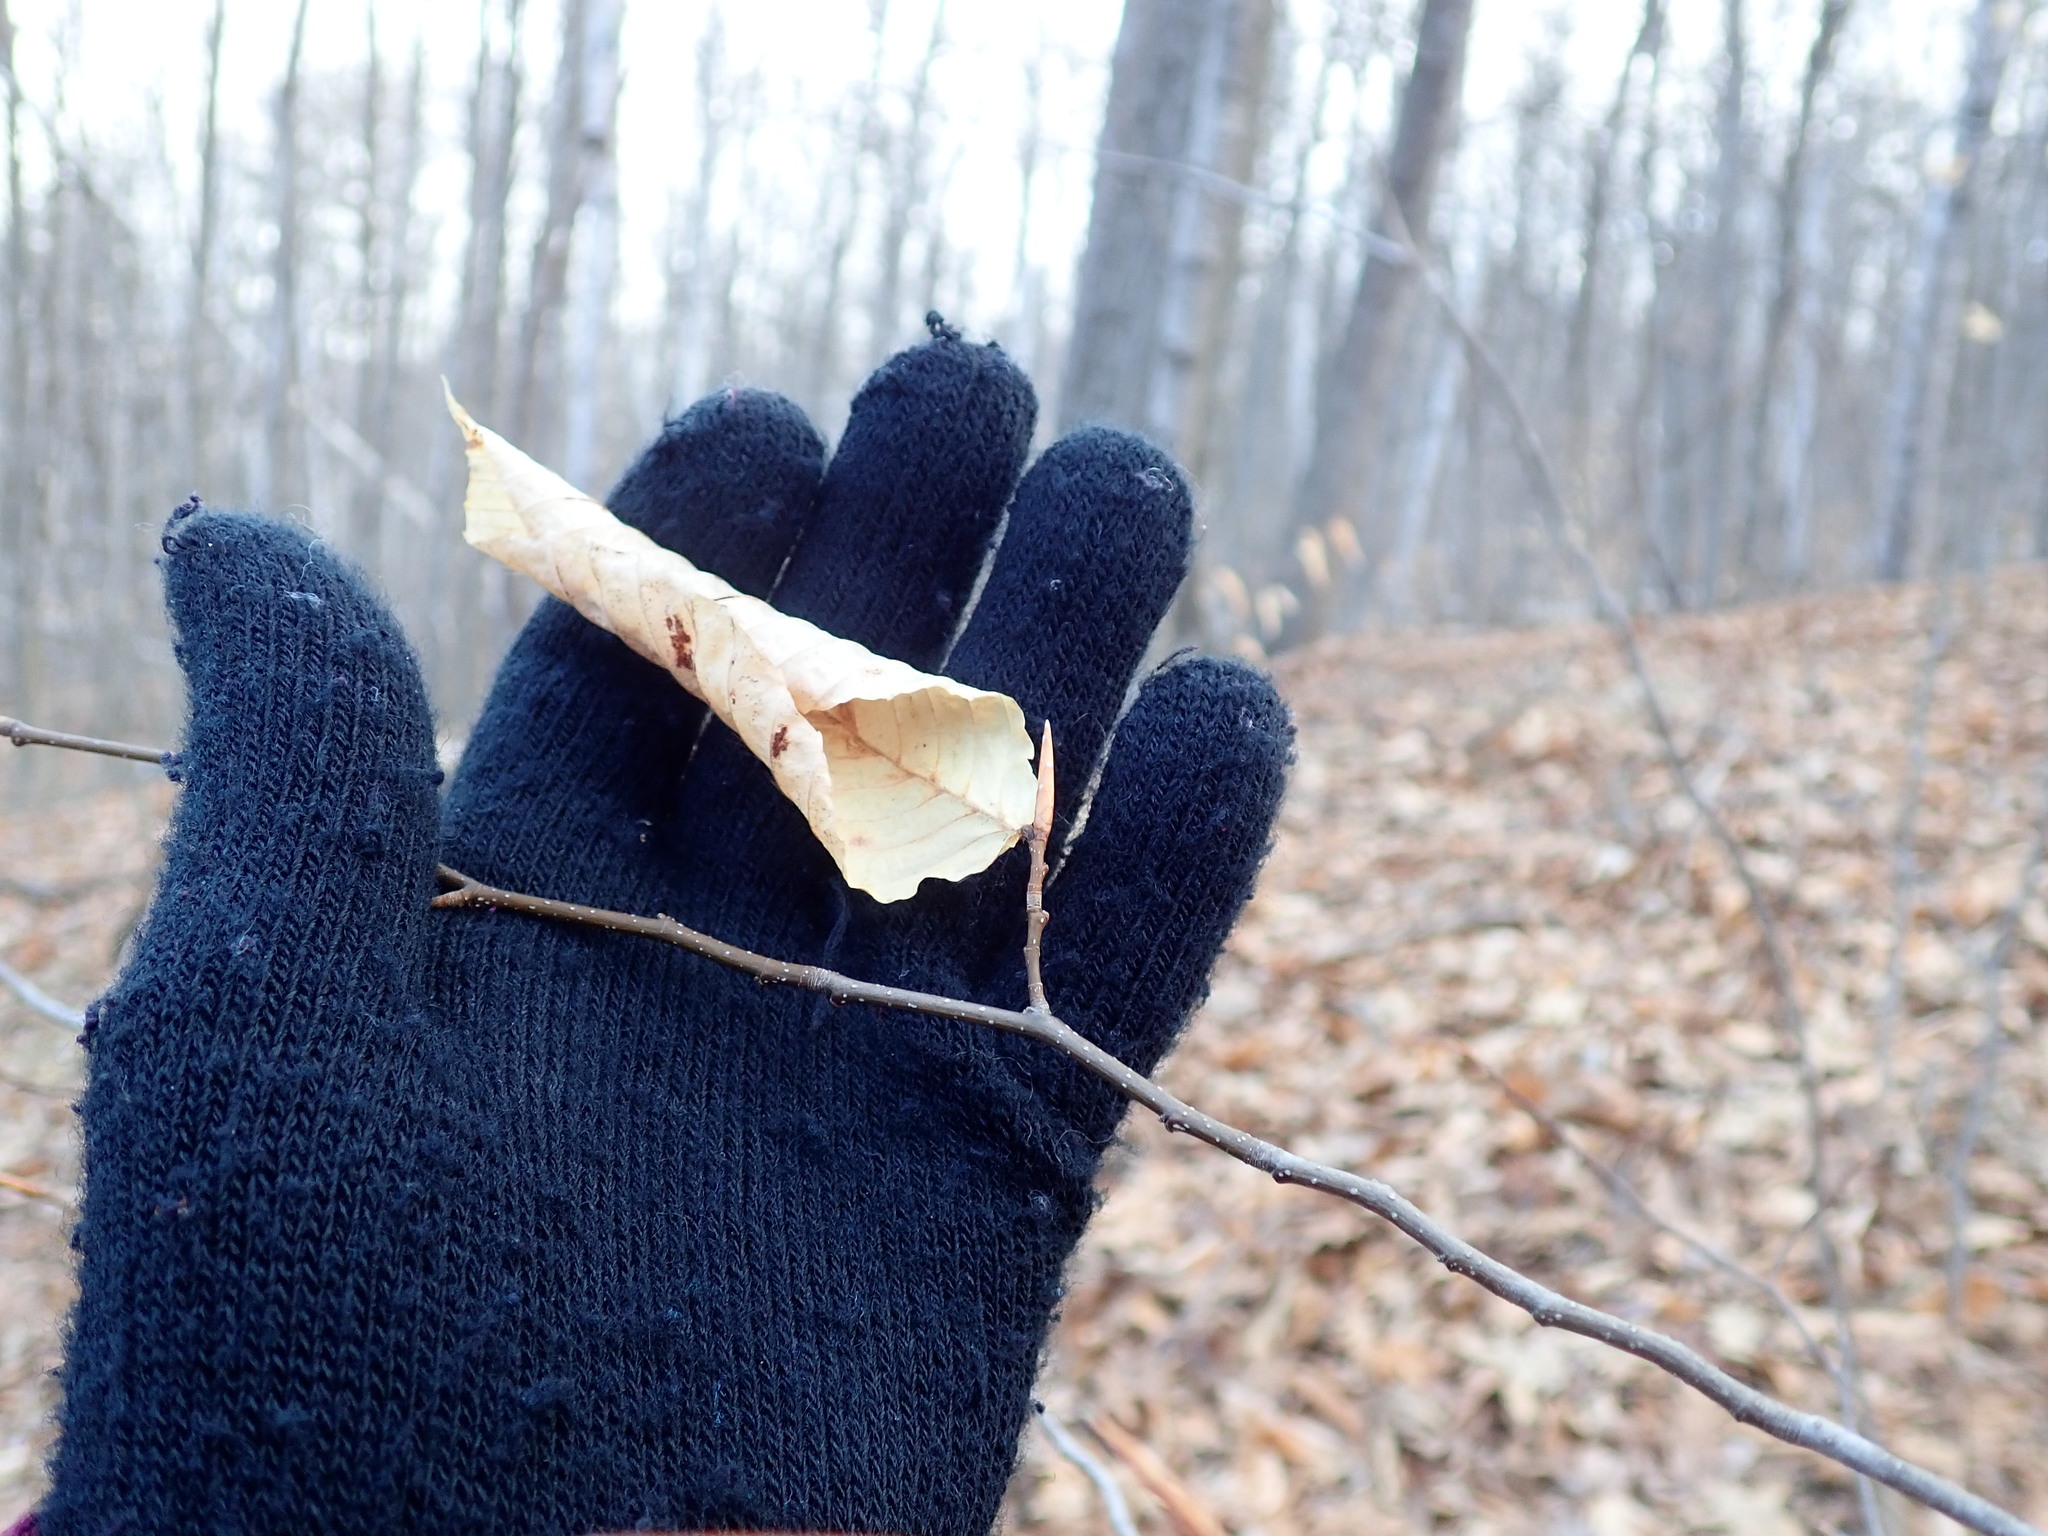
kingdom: Plantae
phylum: Tracheophyta
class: Magnoliopsida
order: Fagales
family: Fagaceae
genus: Fagus
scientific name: Fagus grandifolia
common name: American beech
